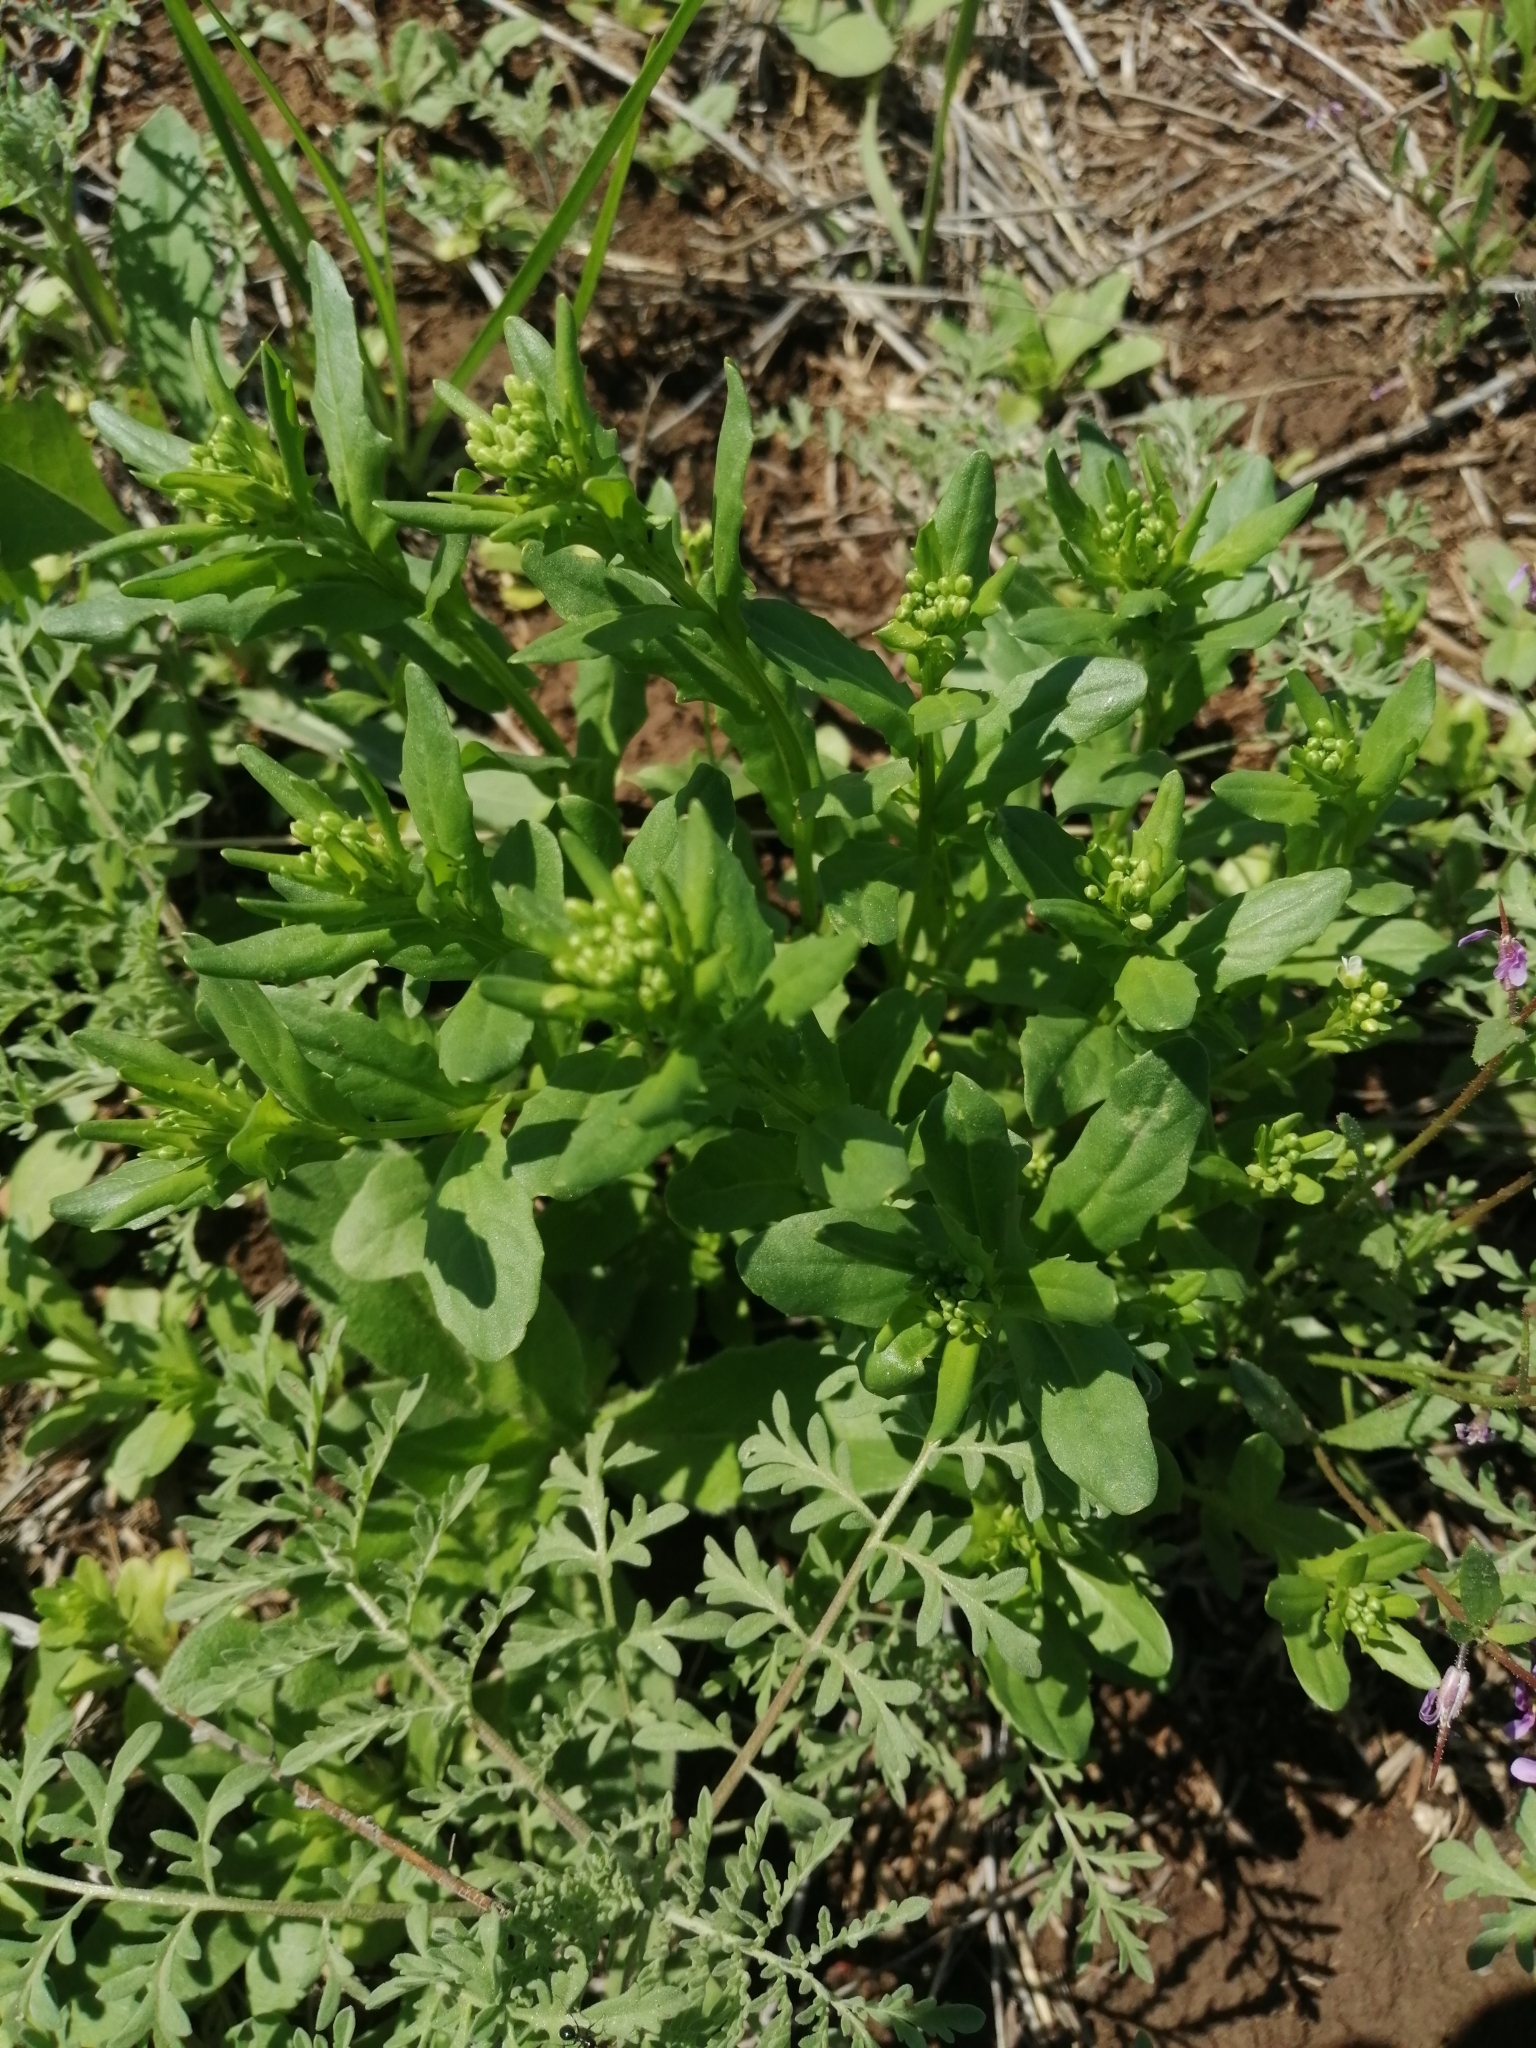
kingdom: Plantae
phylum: Tracheophyta
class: Magnoliopsida
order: Brassicales
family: Brassicaceae
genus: Thlaspi
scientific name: Thlaspi arvense
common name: Field pennycress
